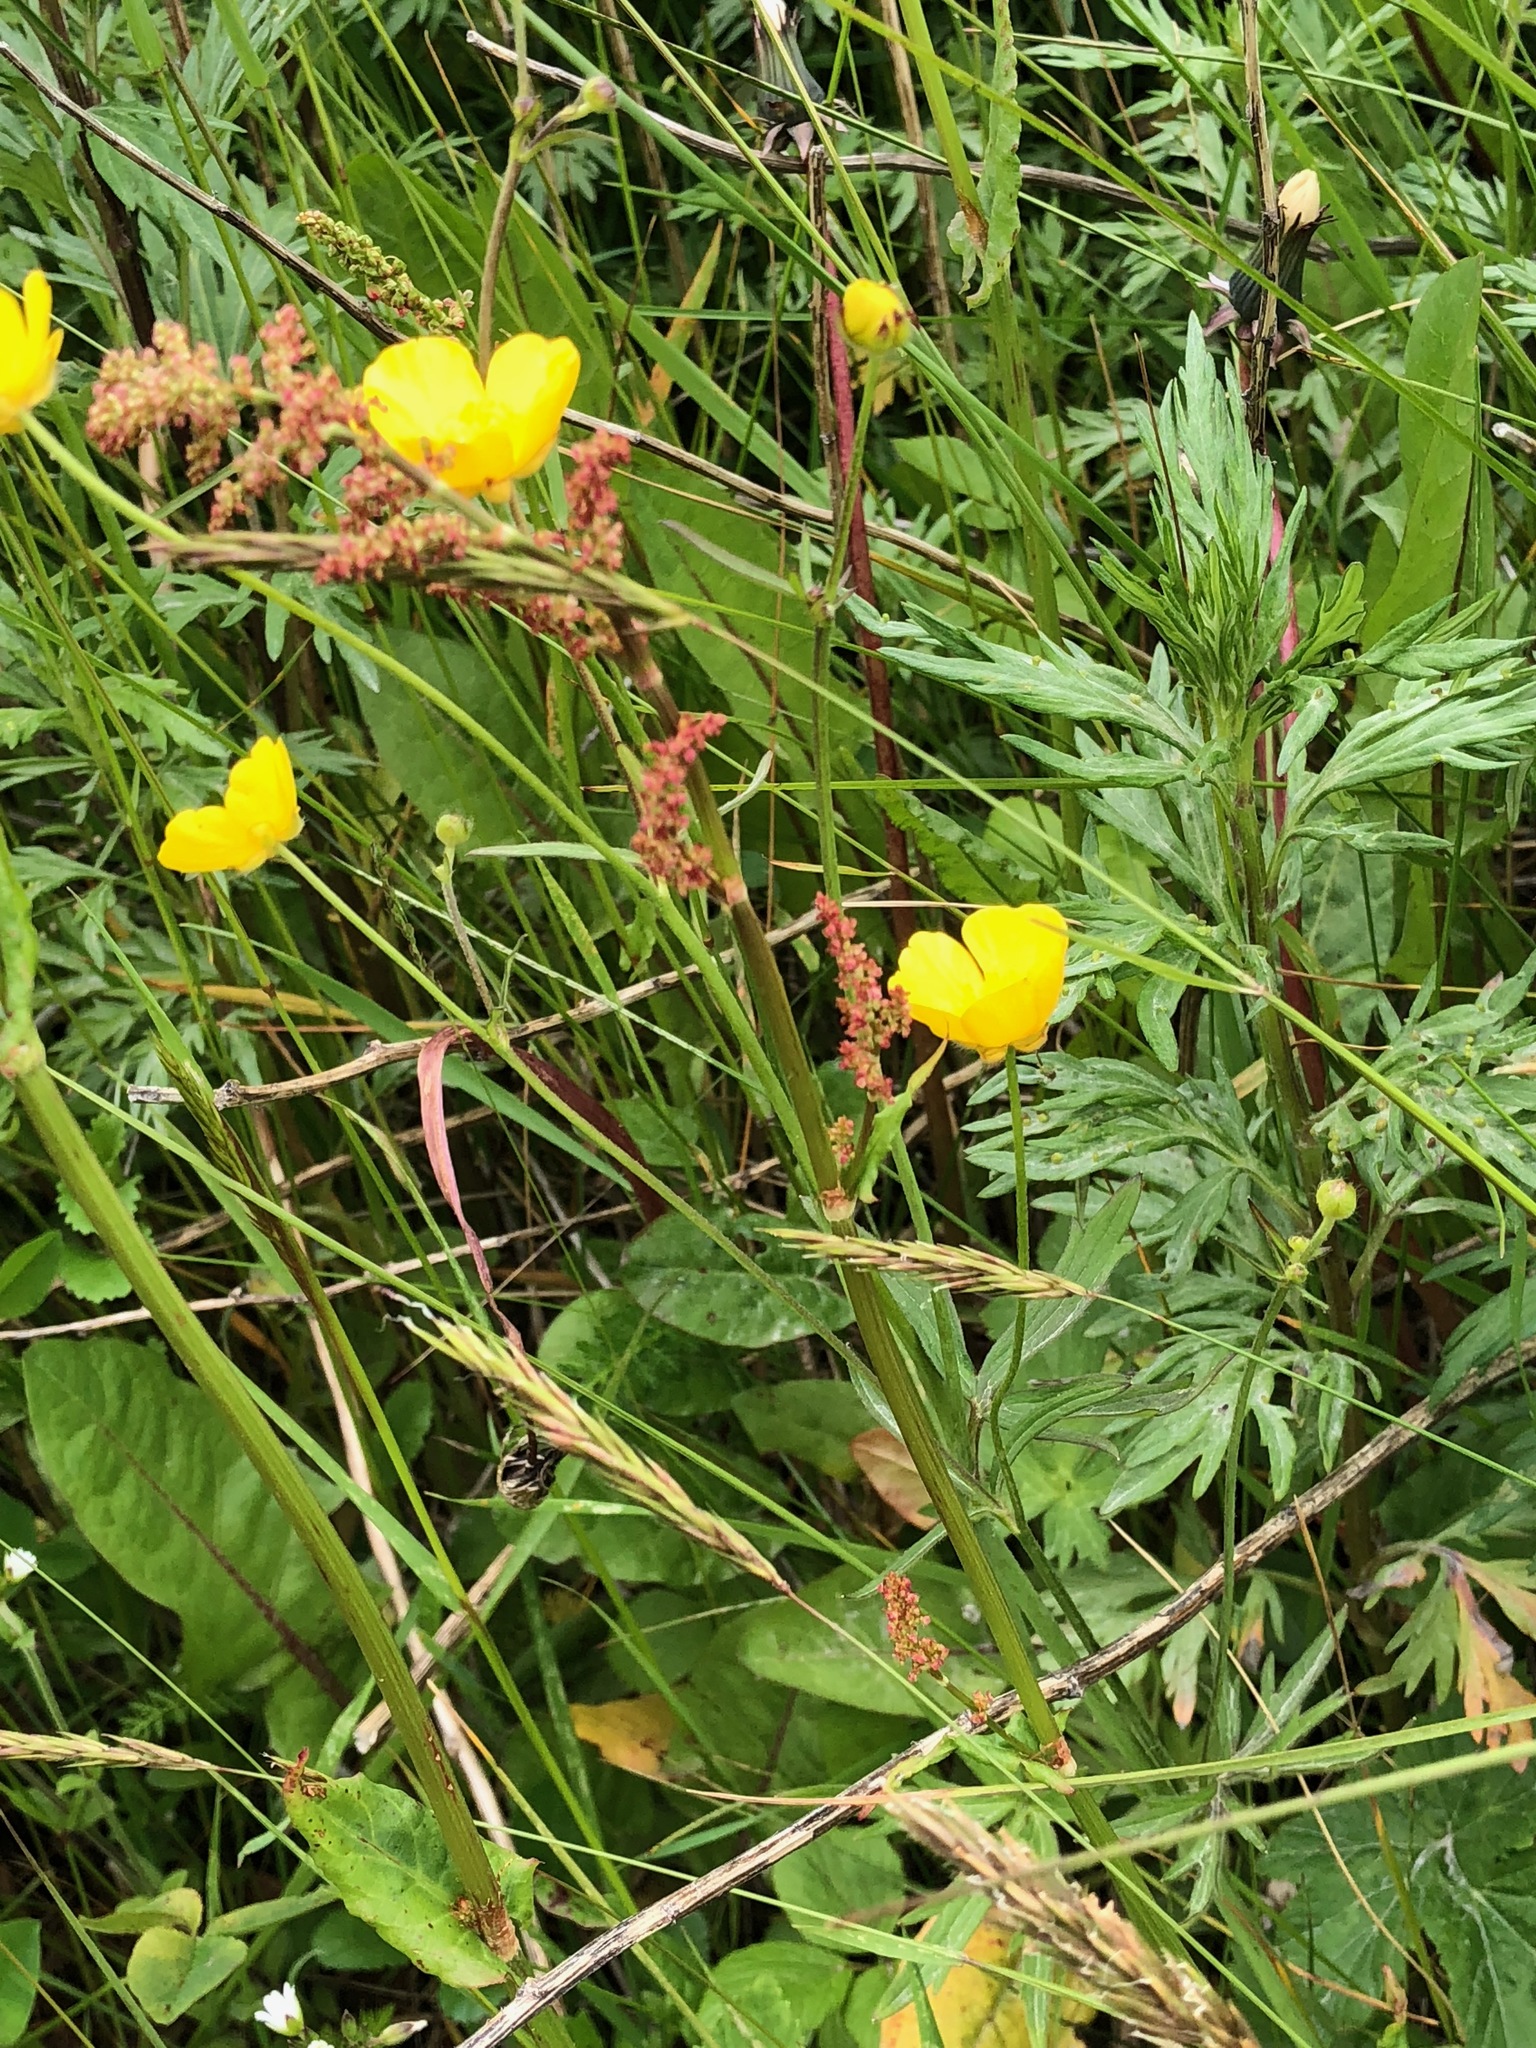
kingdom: Plantae
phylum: Tracheophyta
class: Magnoliopsida
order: Caryophyllales
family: Polygonaceae
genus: Rumex
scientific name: Rumex acetosella
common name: Common sheep sorrel
